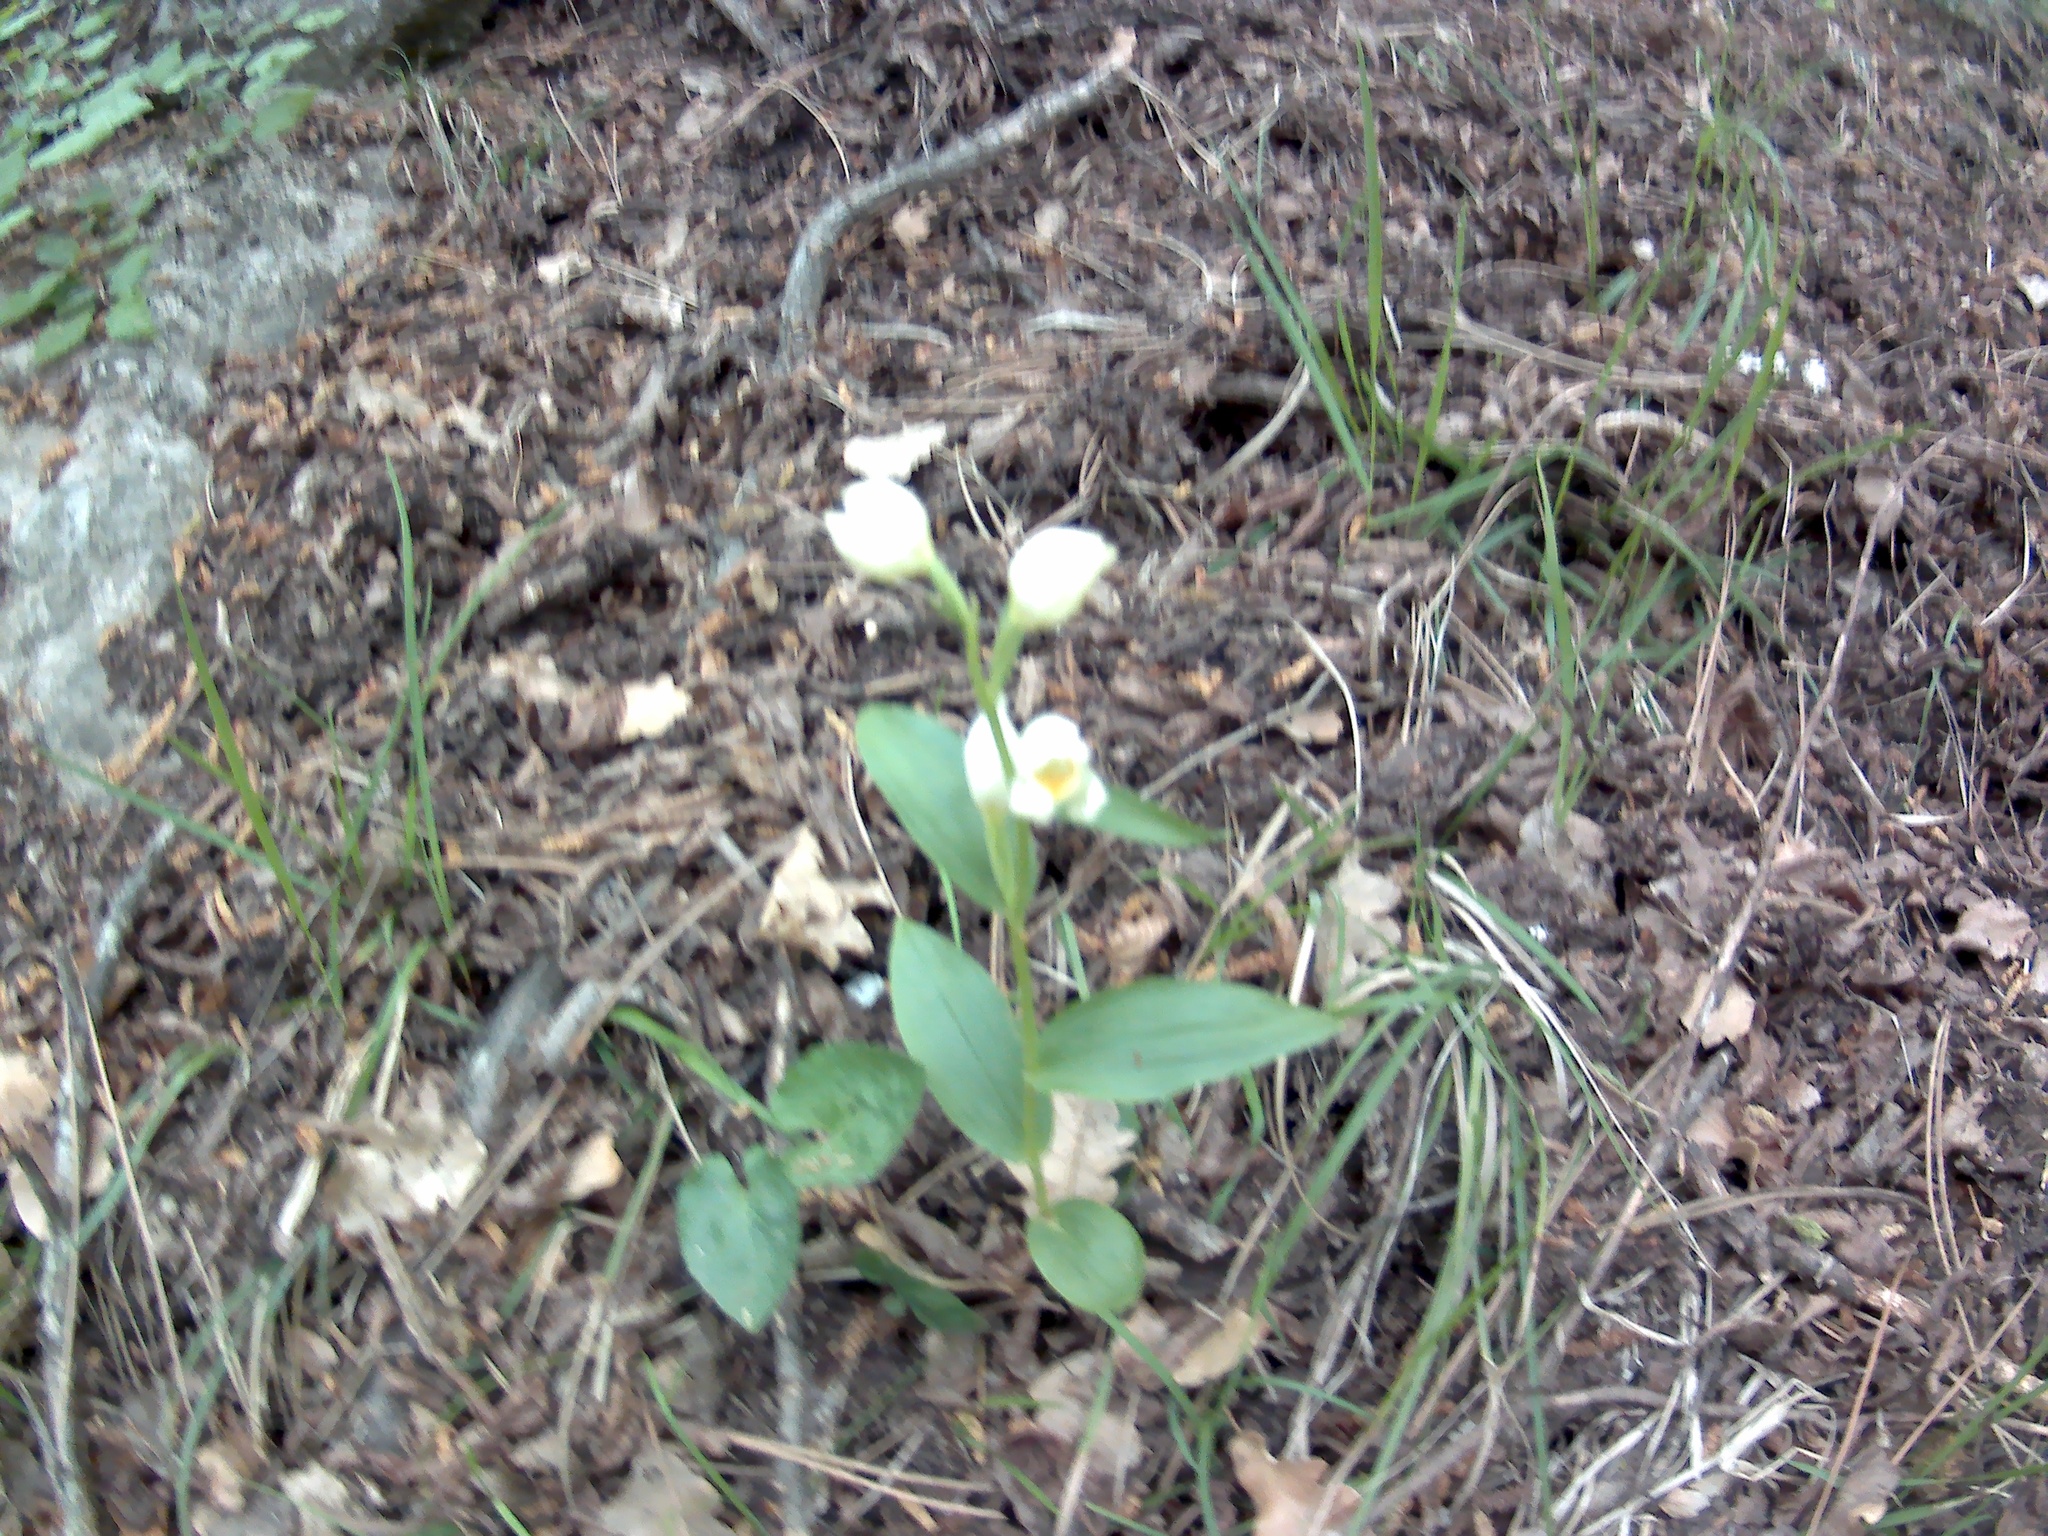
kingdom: Plantae
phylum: Tracheophyta
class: Liliopsida
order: Asparagales
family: Orchidaceae
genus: Cephalanthera
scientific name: Cephalanthera damasonium
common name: White helleborine
